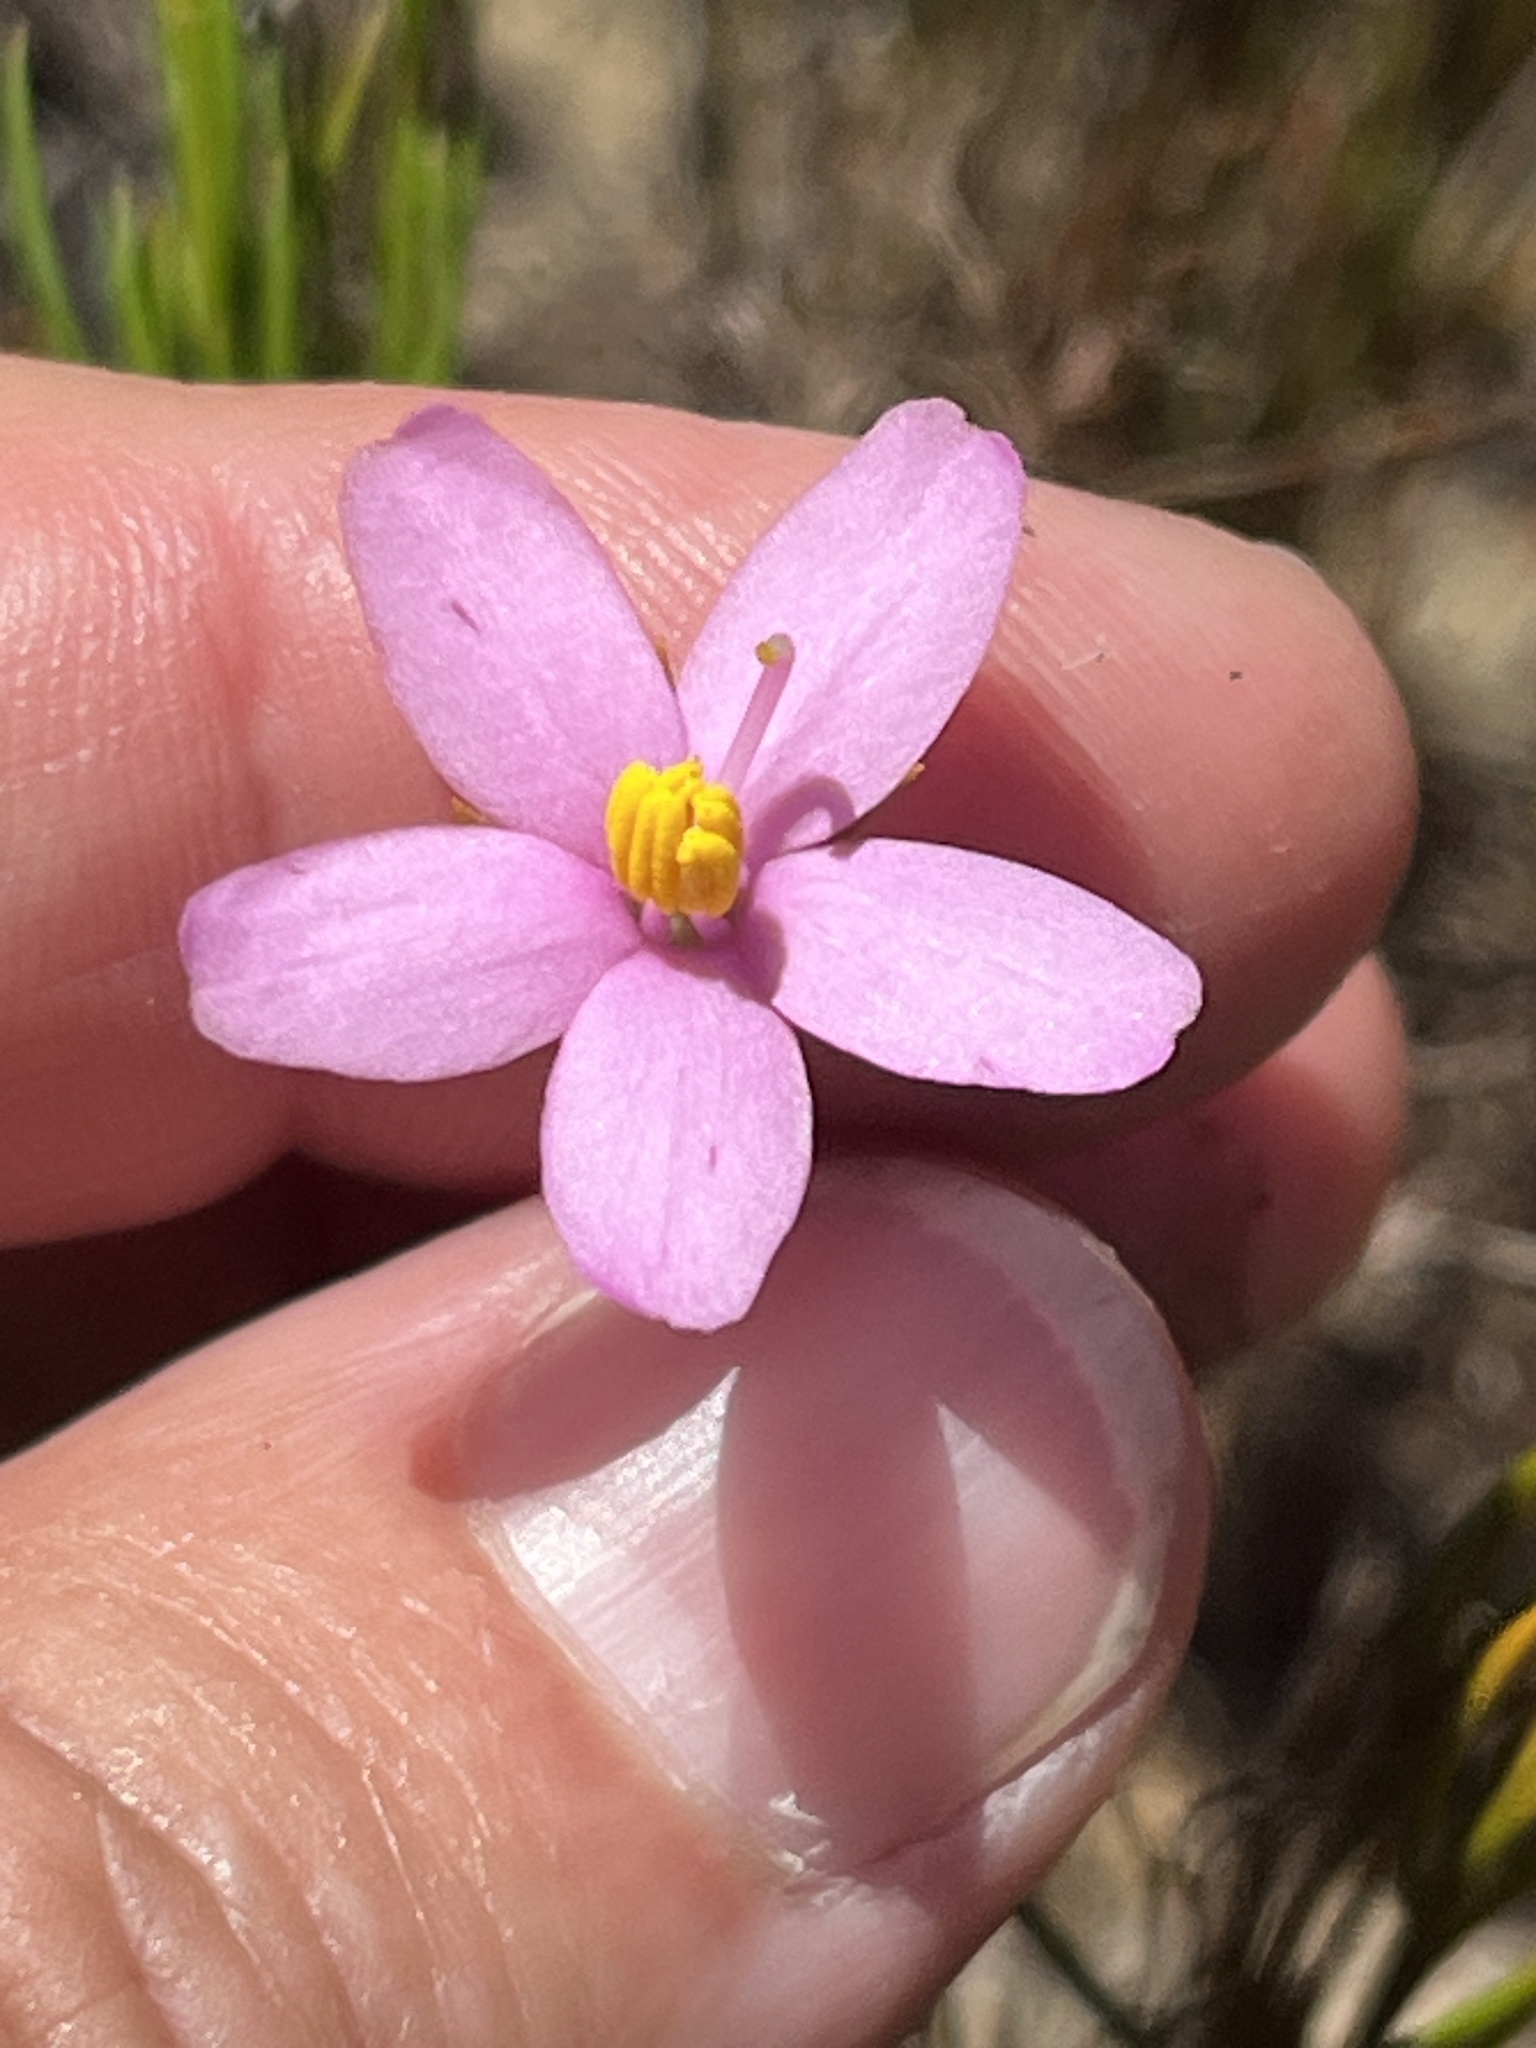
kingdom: Plantae
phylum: Tracheophyta
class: Magnoliopsida
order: Gentianales
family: Gentianaceae
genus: Chironia
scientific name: Chironia linoides
